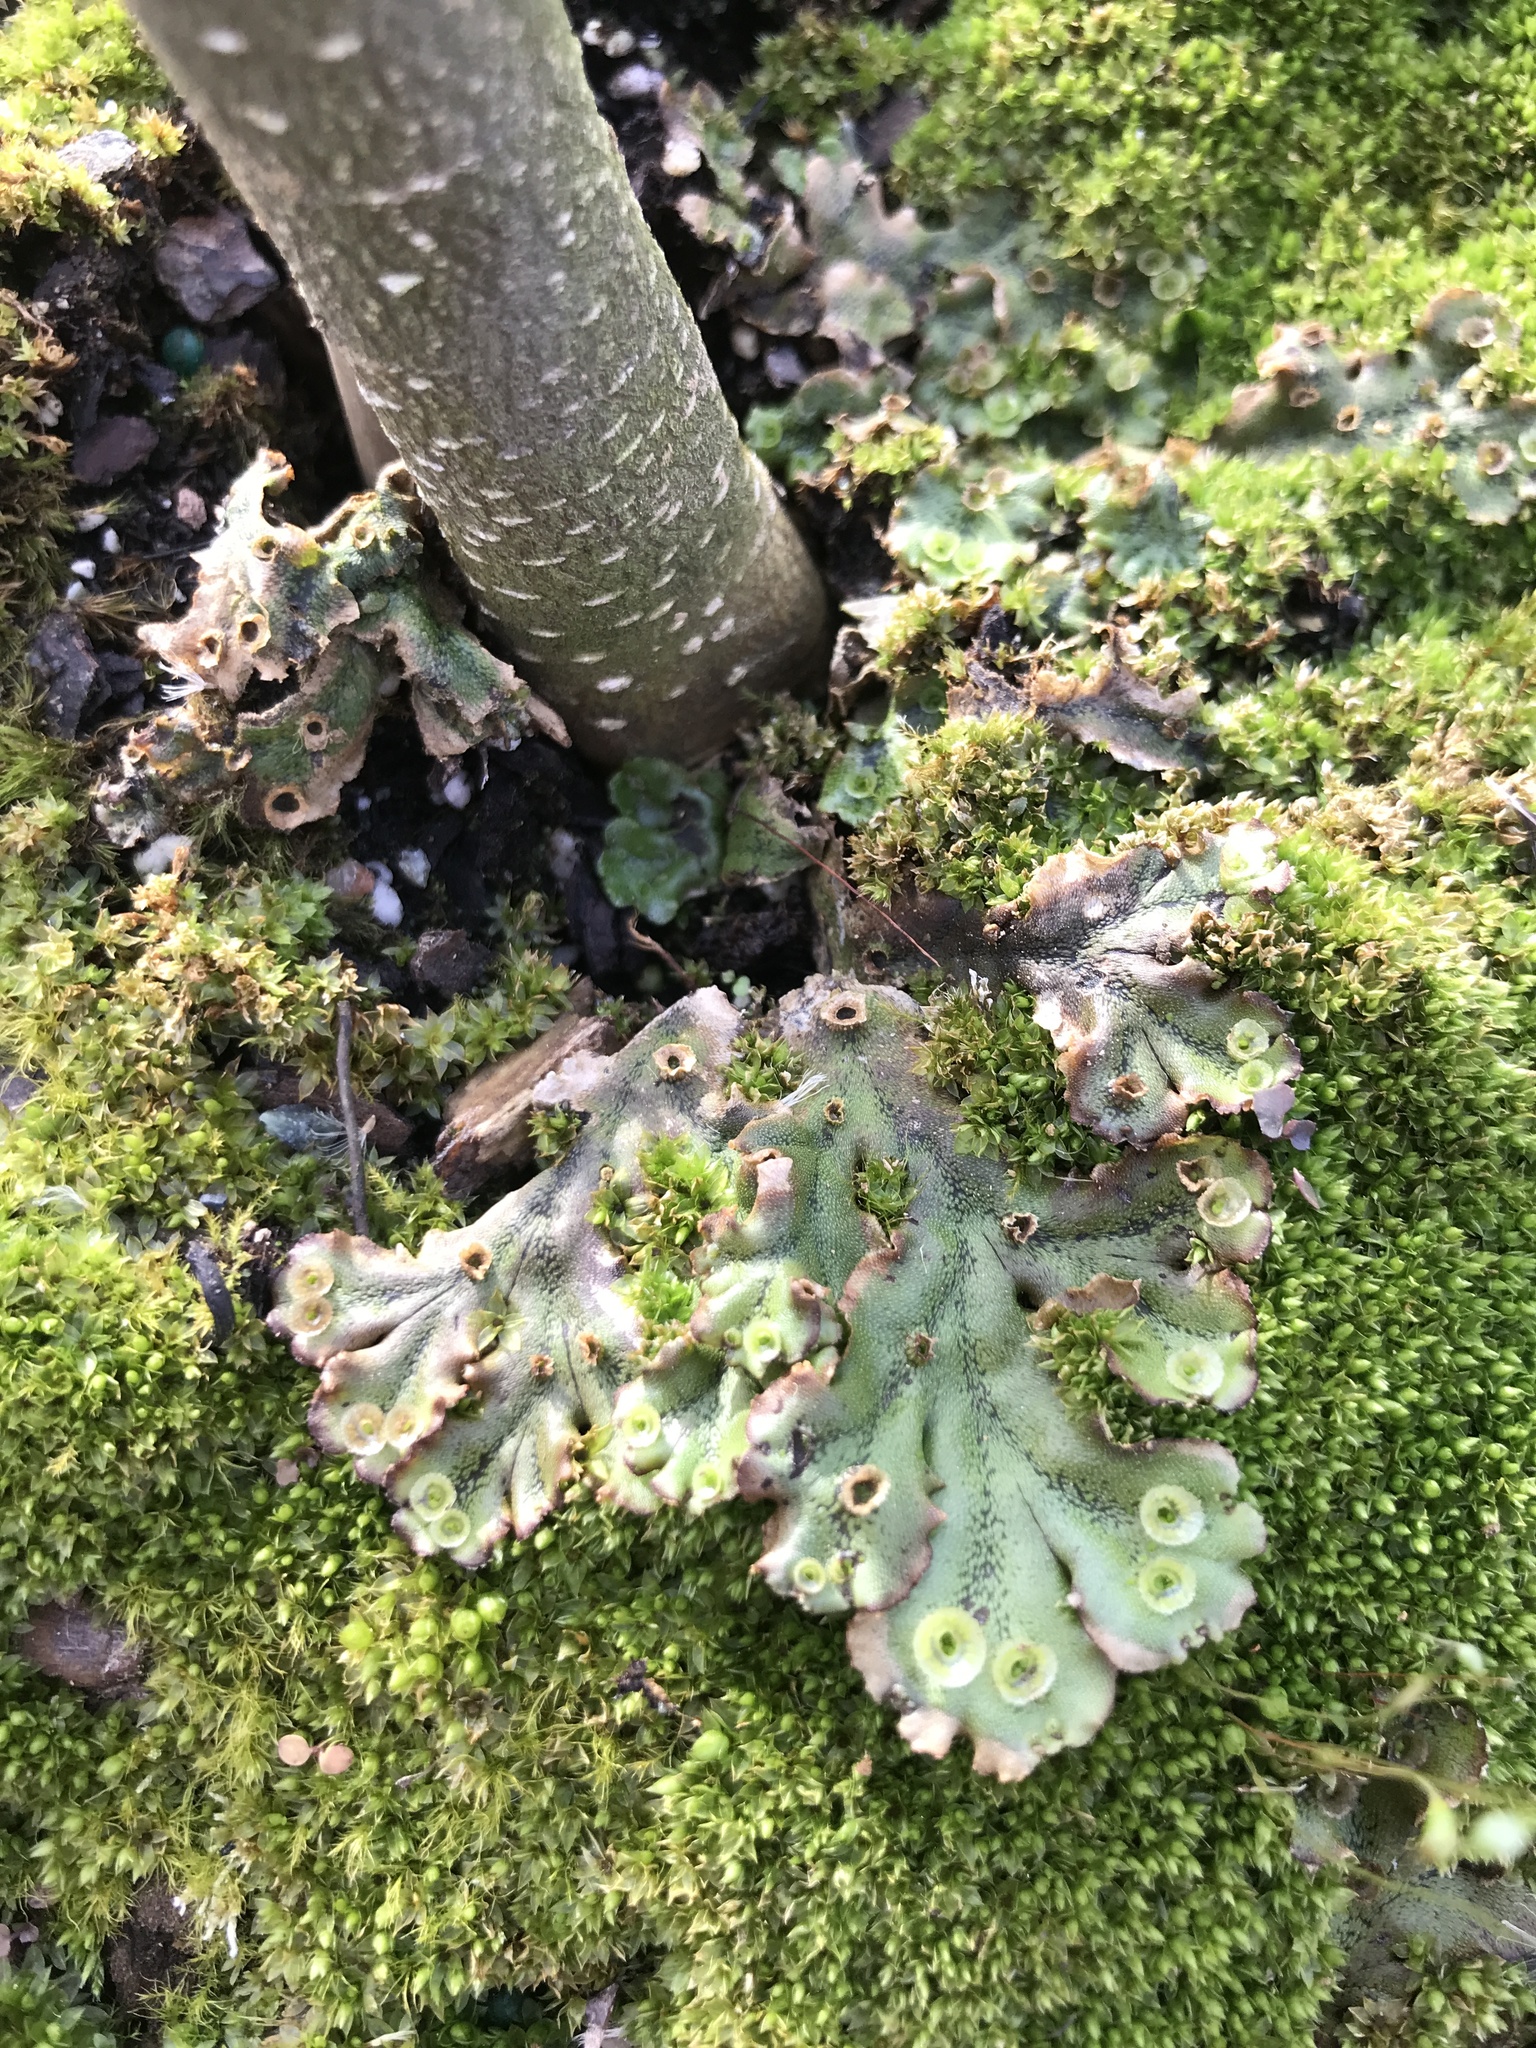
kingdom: Plantae
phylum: Marchantiophyta
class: Marchantiopsida
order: Marchantiales
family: Marchantiaceae
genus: Marchantia
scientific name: Marchantia polymorpha
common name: Common liverwort
